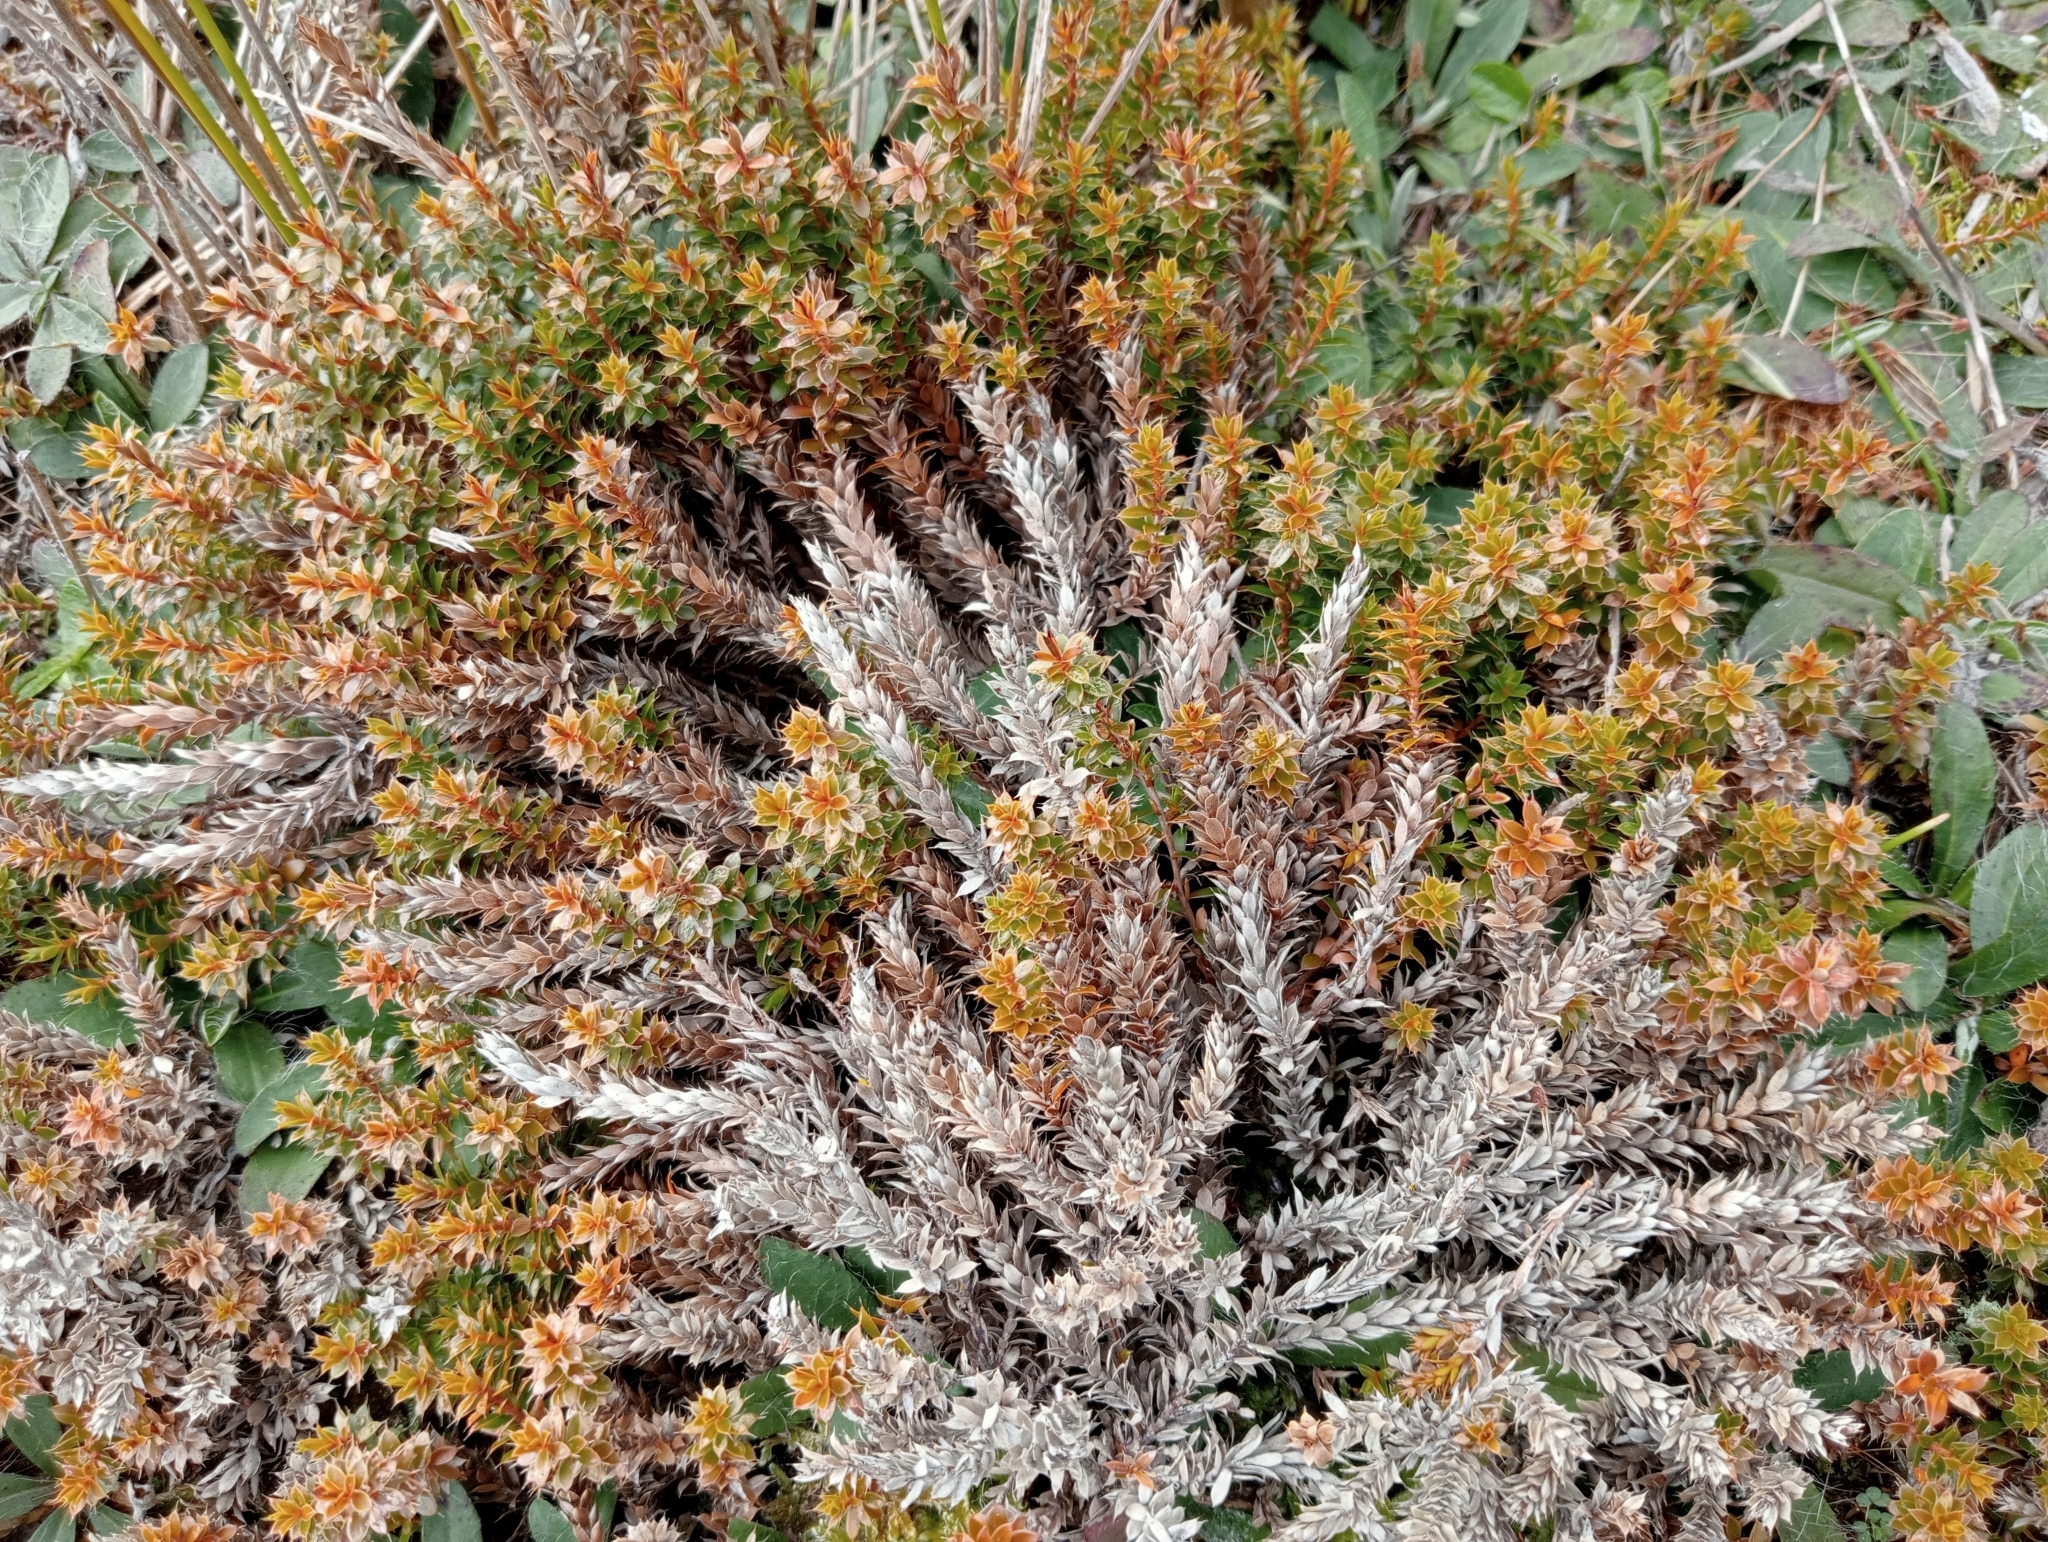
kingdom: Plantae
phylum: Tracheophyta
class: Magnoliopsida
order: Ericales
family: Ericaceae
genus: Styphelia
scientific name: Styphelia nesophila
